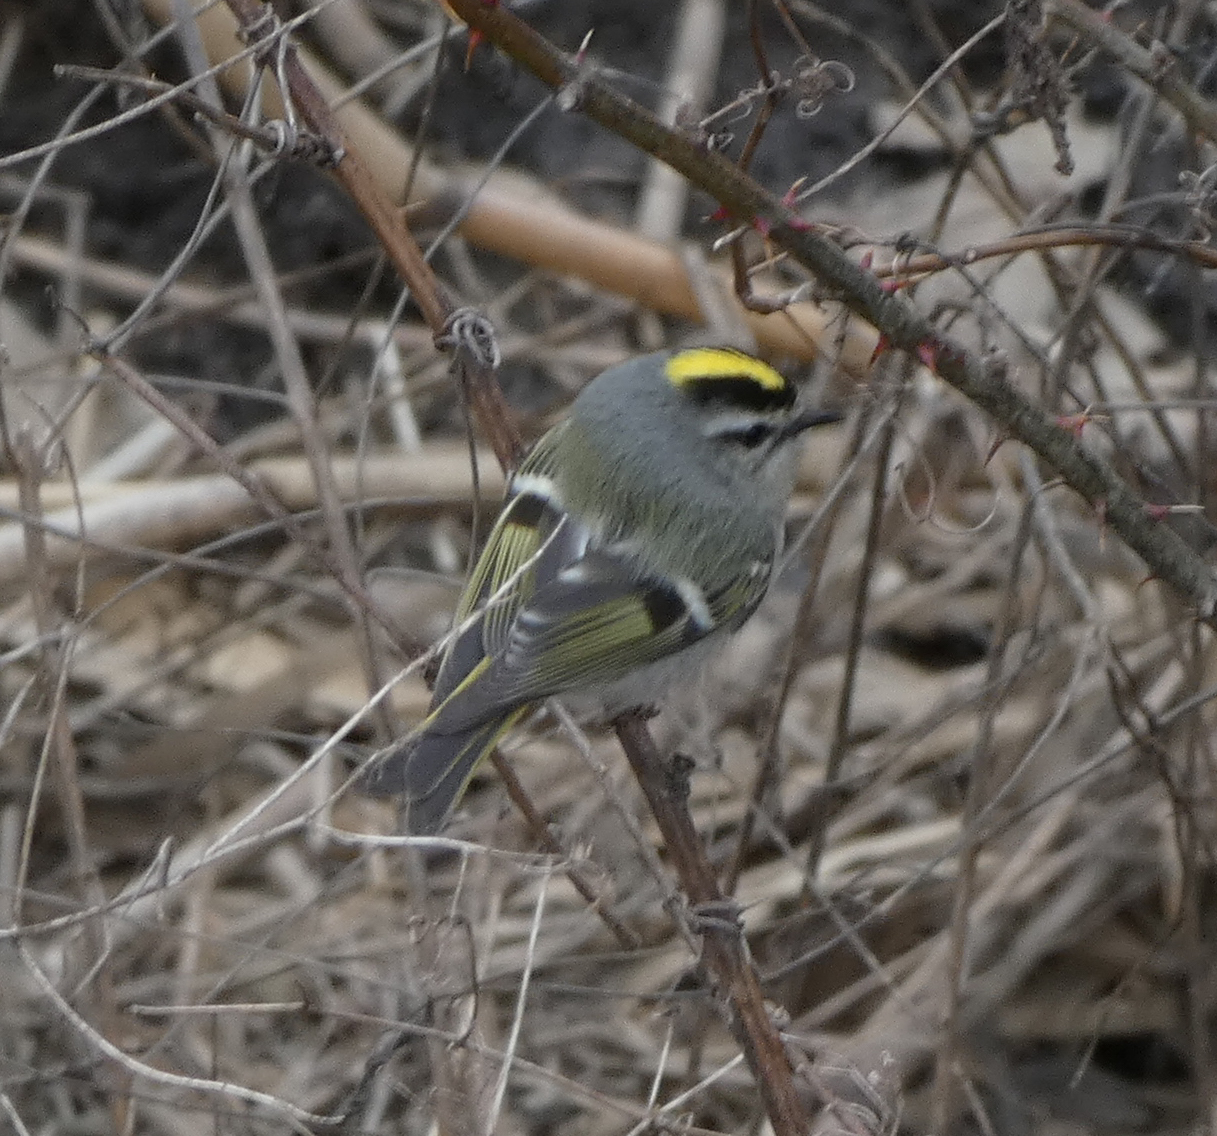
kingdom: Animalia
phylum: Chordata
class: Aves
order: Passeriformes
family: Regulidae
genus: Regulus
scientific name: Regulus satrapa
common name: Golden-crowned kinglet
